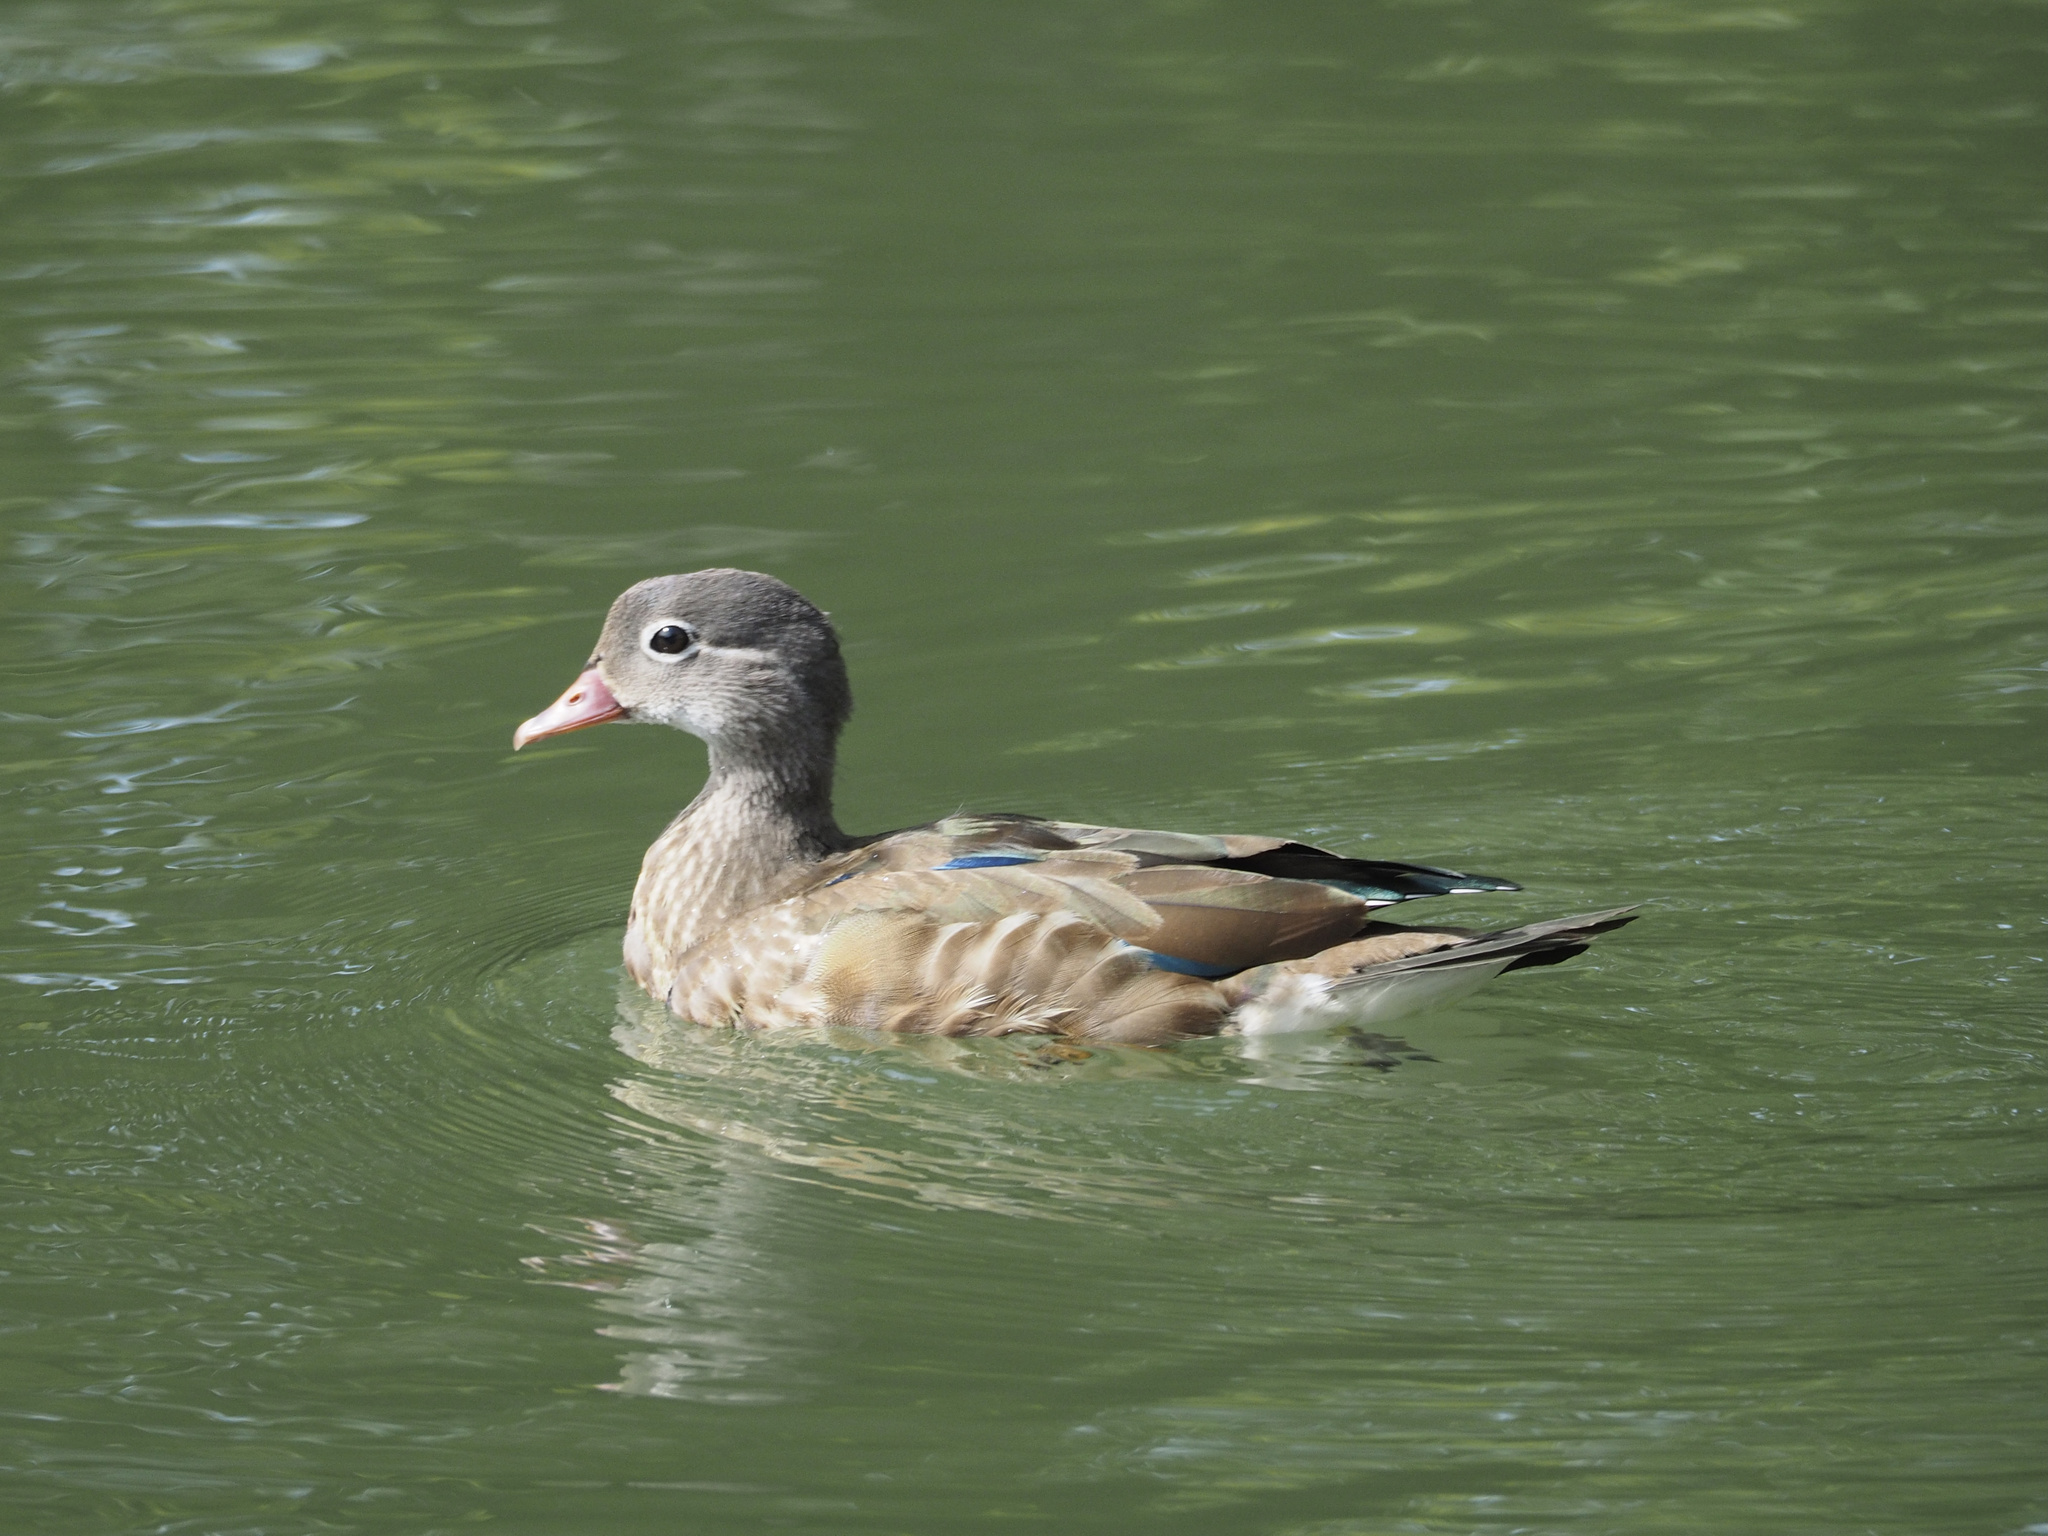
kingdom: Animalia
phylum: Chordata
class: Aves
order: Anseriformes
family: Anatidae
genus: Aix
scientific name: Aix galericulata
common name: Mandarin duck
